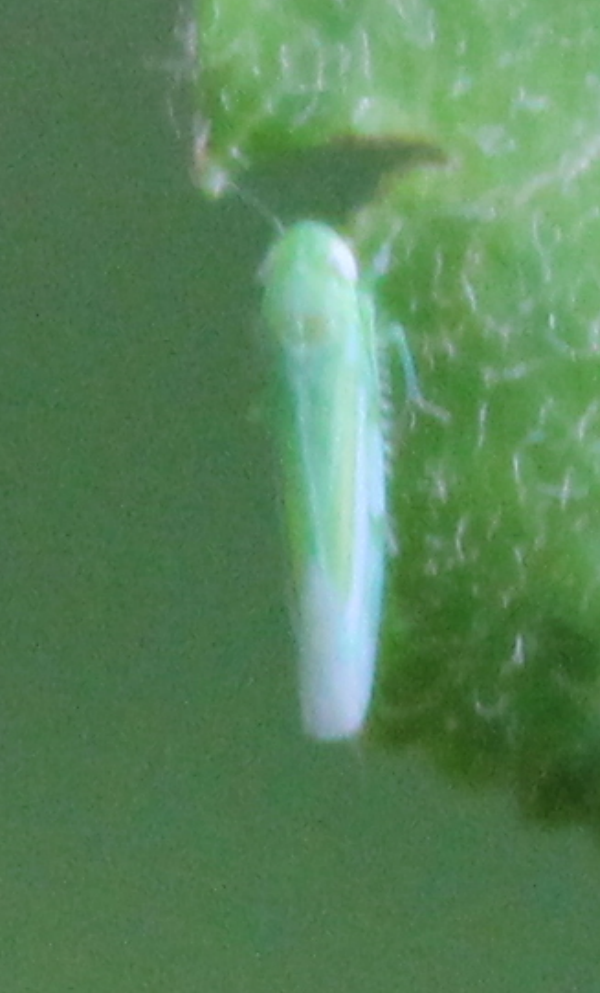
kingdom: Animalia
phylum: Arthropoda
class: Insecta
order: Hemiptera
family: Cicadellidae
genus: Hebata
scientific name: Hebata vitis
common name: The smaller green leafhopper
